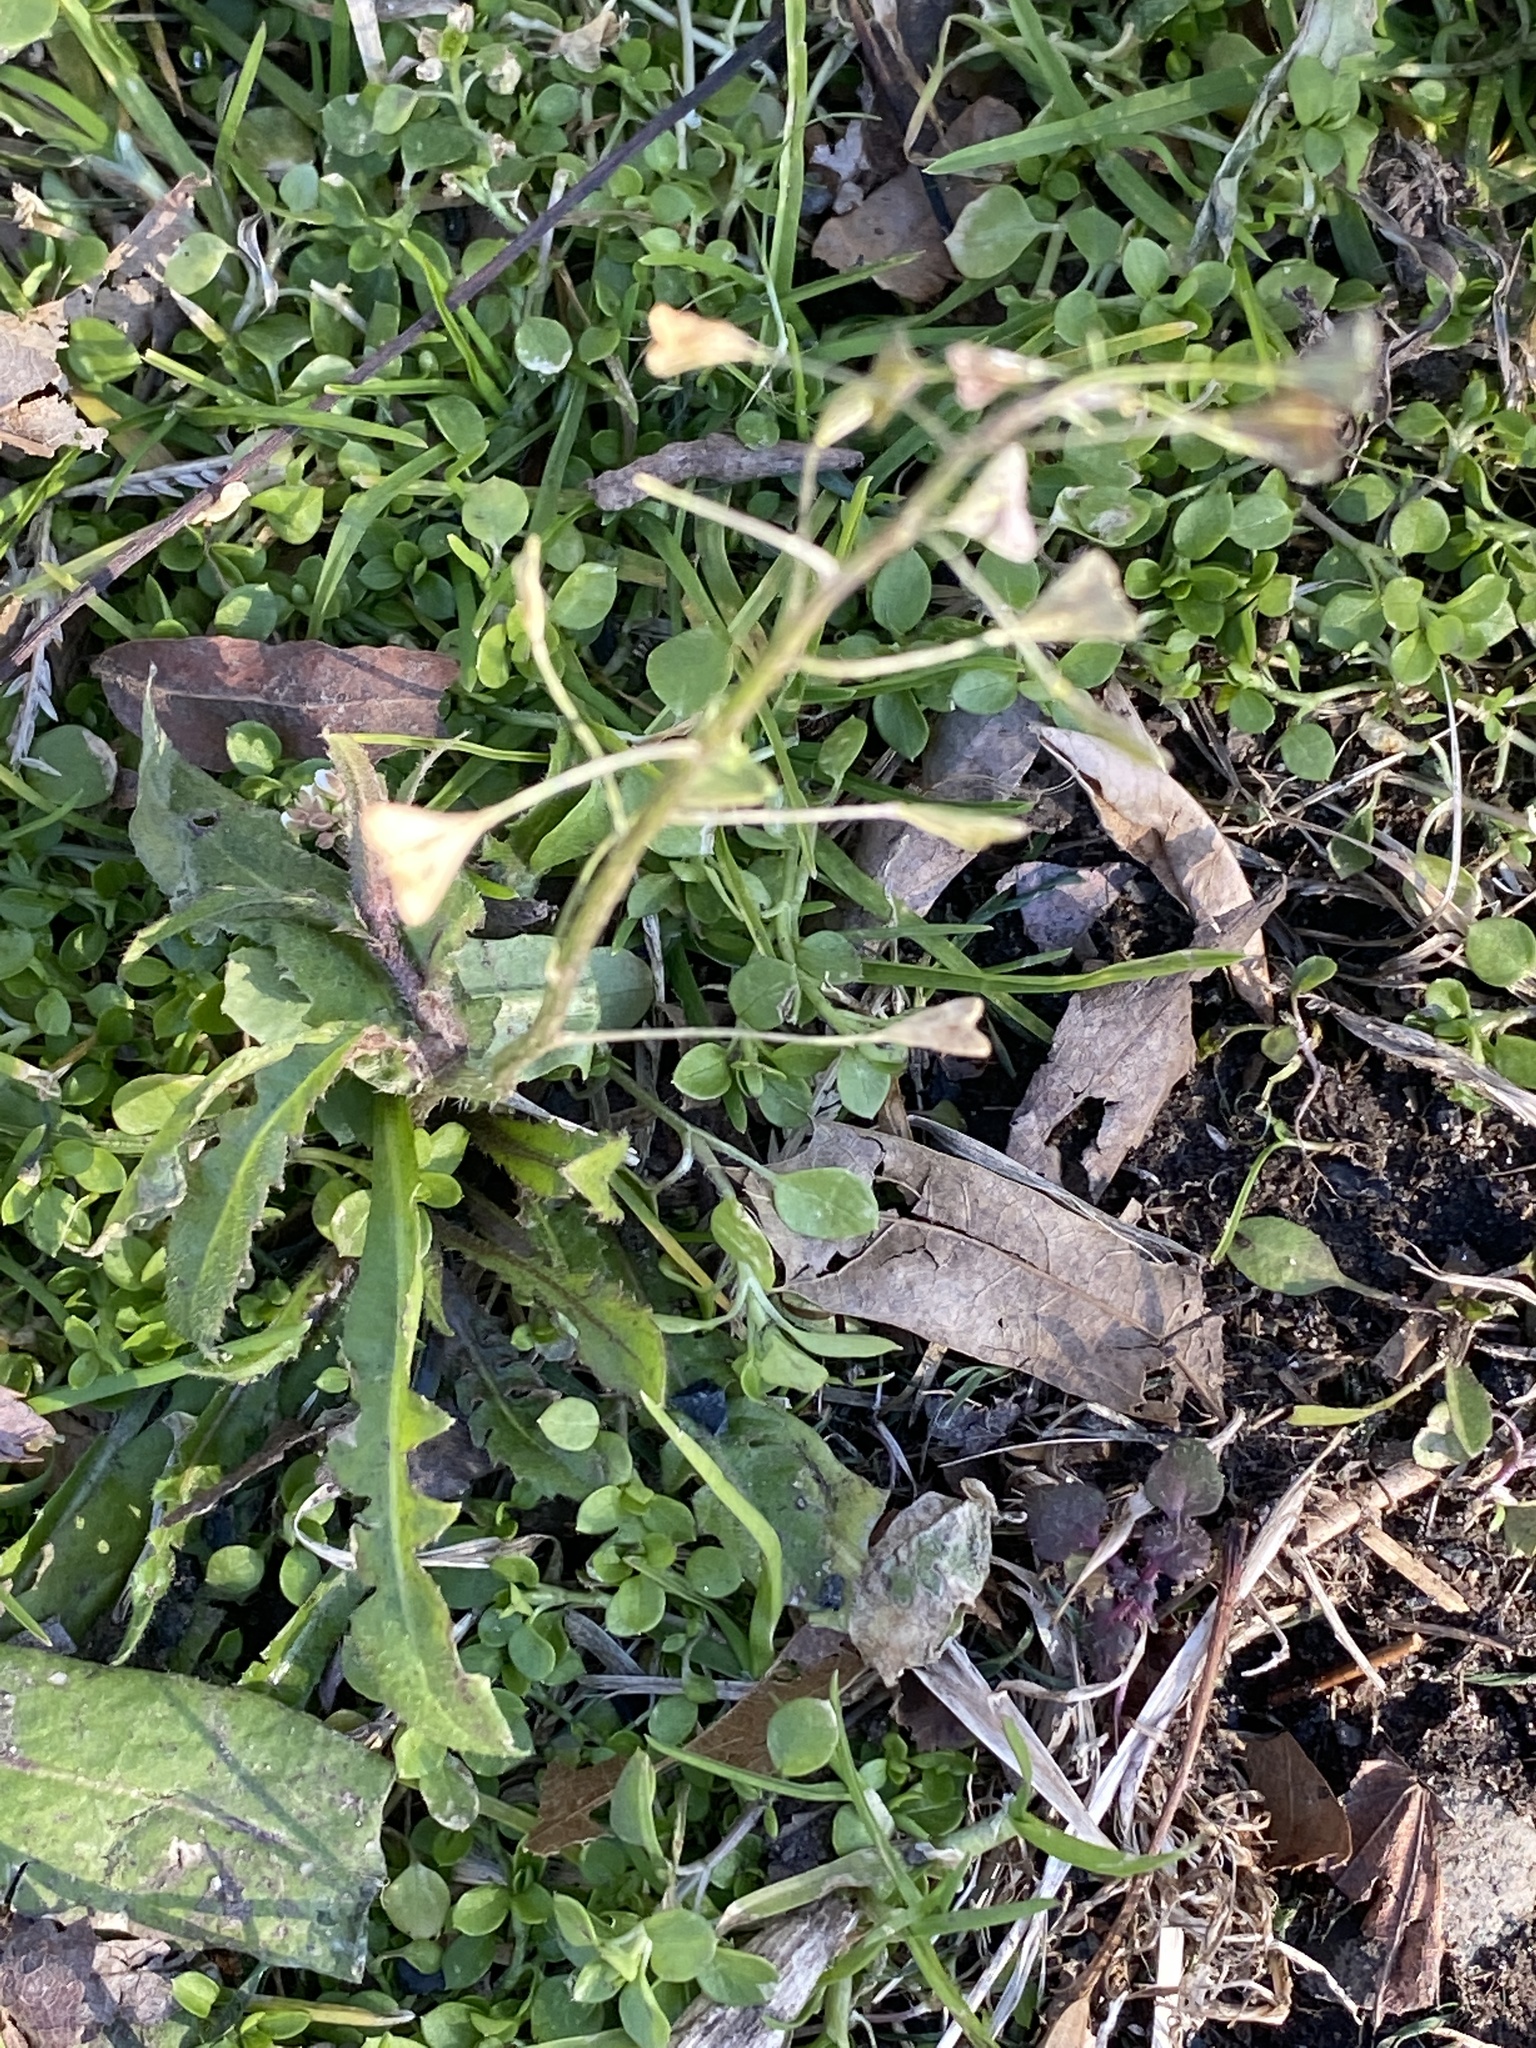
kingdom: Plantae
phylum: Tracheophyta
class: Magnoliopsida
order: Brassicales
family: Brassicaceae
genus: Capsella
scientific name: Capsella bursa-pastoris
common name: Shepherd's purse
